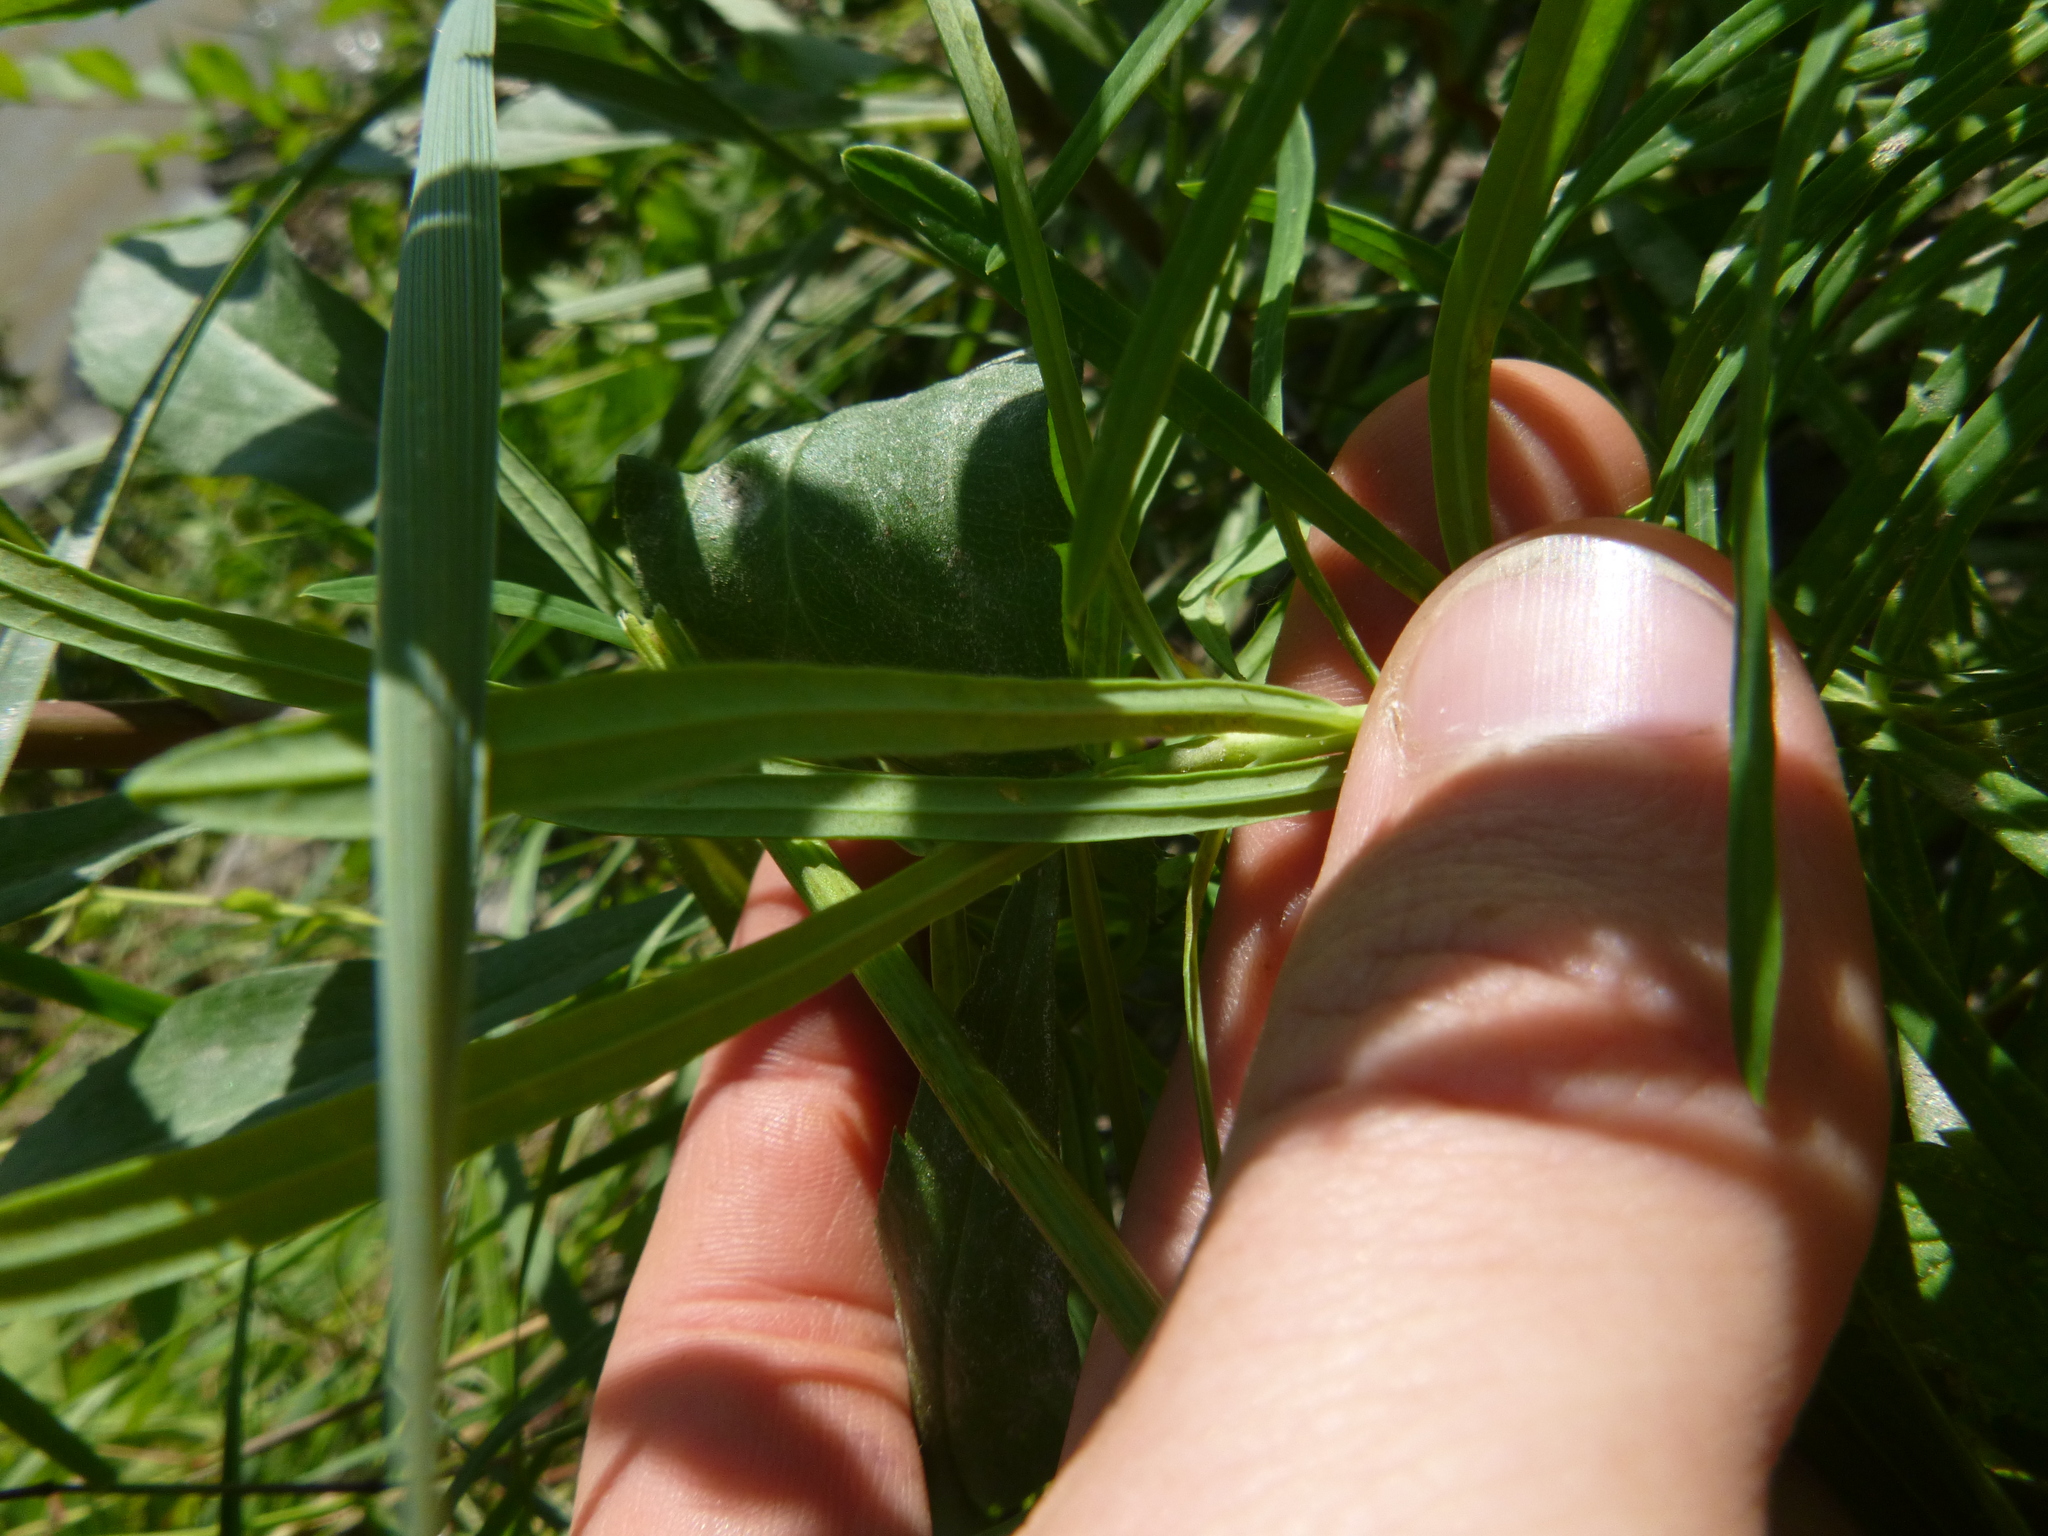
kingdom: Plantae
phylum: Tracheophyta
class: Magnoliopsida
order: Malpighiales
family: Euphorbiaceae
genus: Euphorbia
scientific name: Euphorbia esula
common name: Leafy spurge
